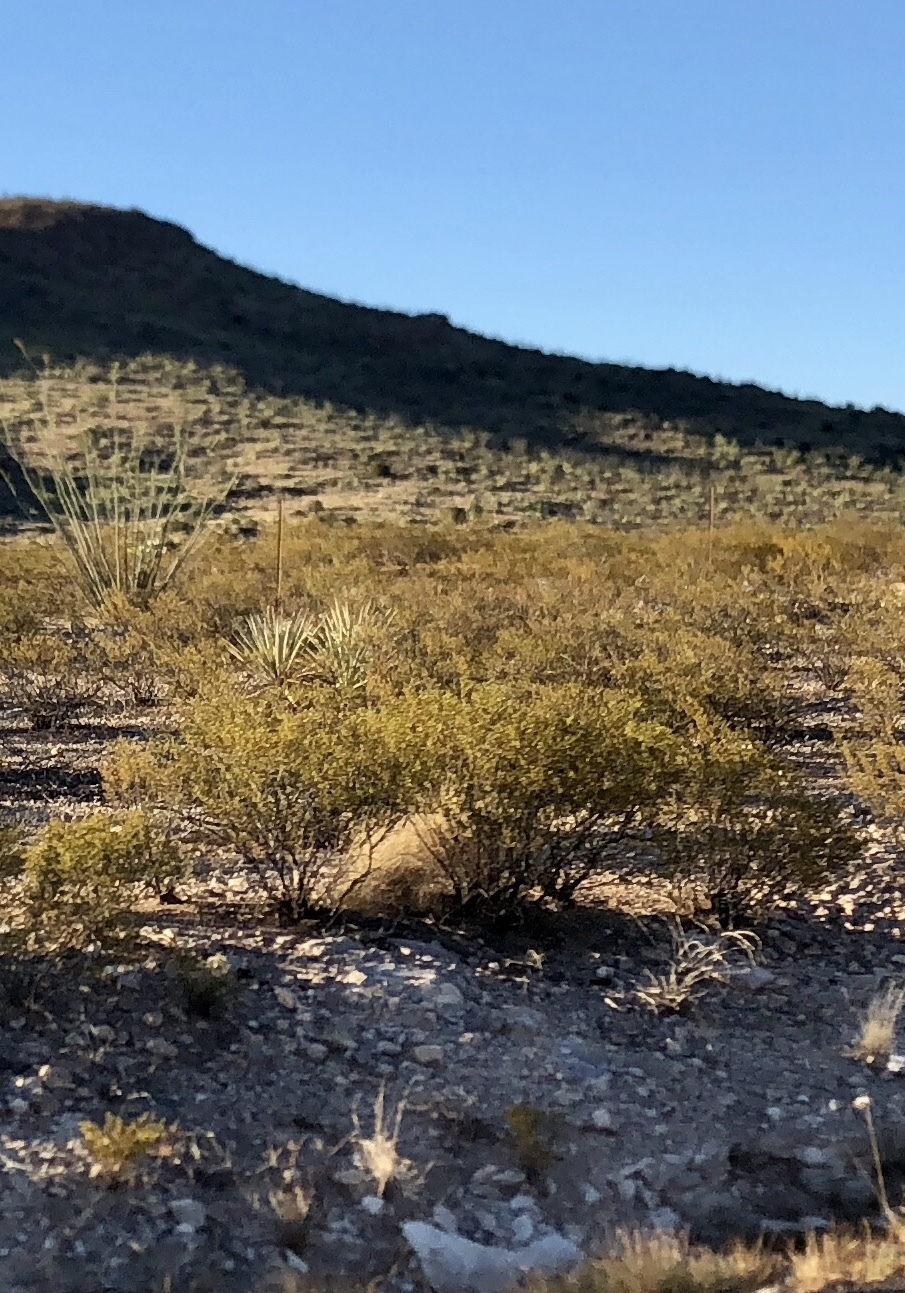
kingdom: Plantae
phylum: Tracheophyta
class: Magnoliopsida
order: Zygophyllales
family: Zygophyllaceae
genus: Larrea
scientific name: Larrea tridentata
